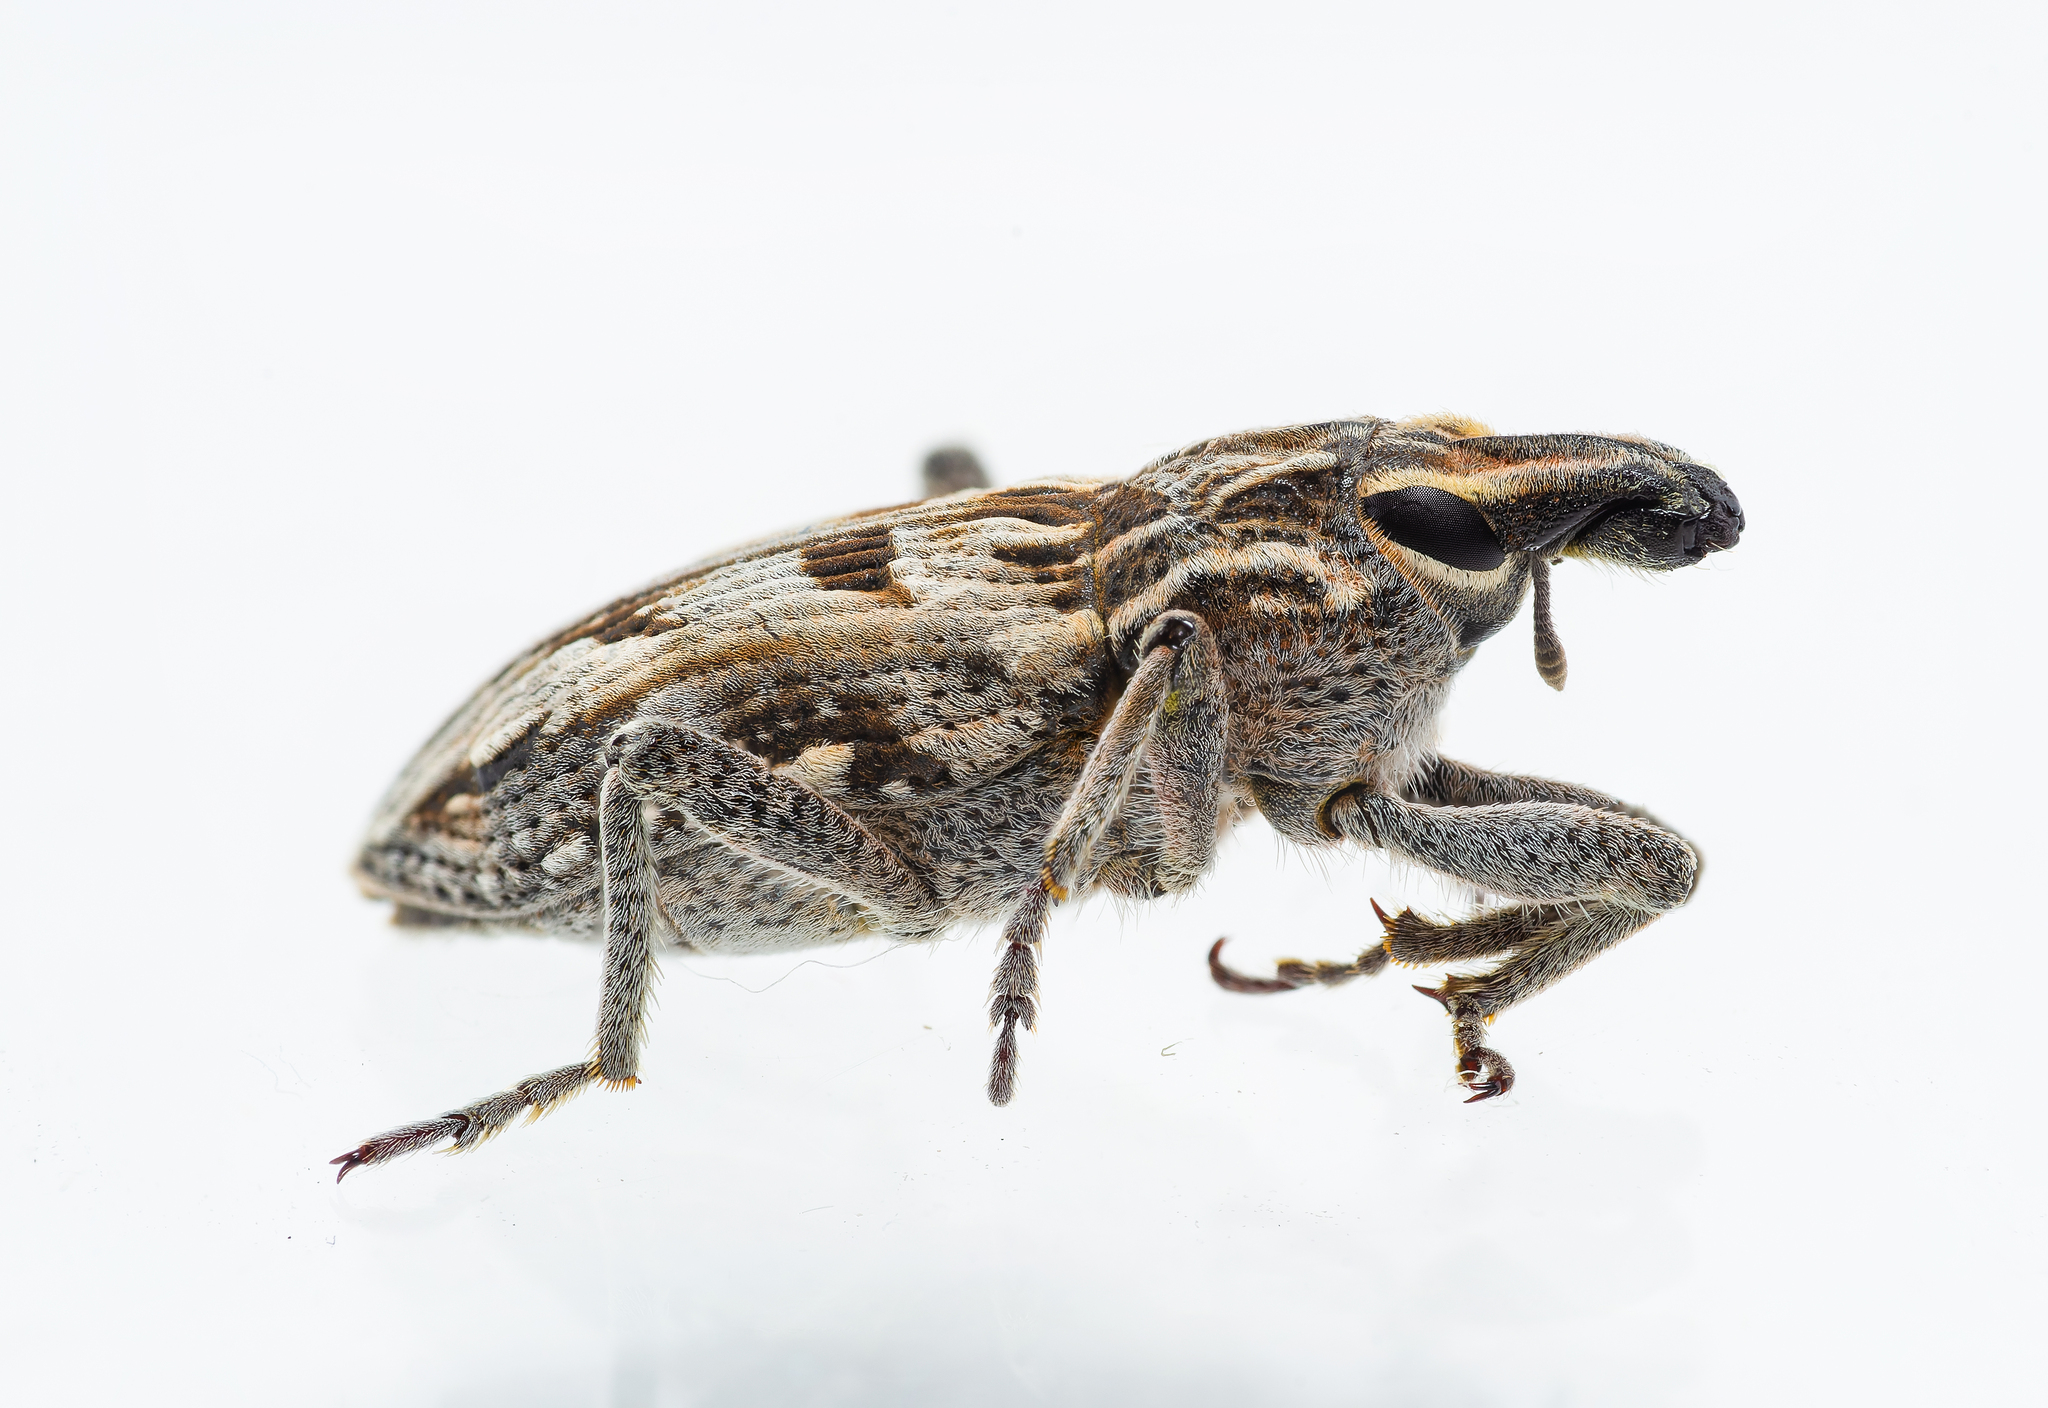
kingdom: Animalia
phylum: Arthropoda
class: Insecta
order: Coleoptera
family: Curculionidae
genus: Coniocleonus
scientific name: Coniocleonus nigrosuturatus
